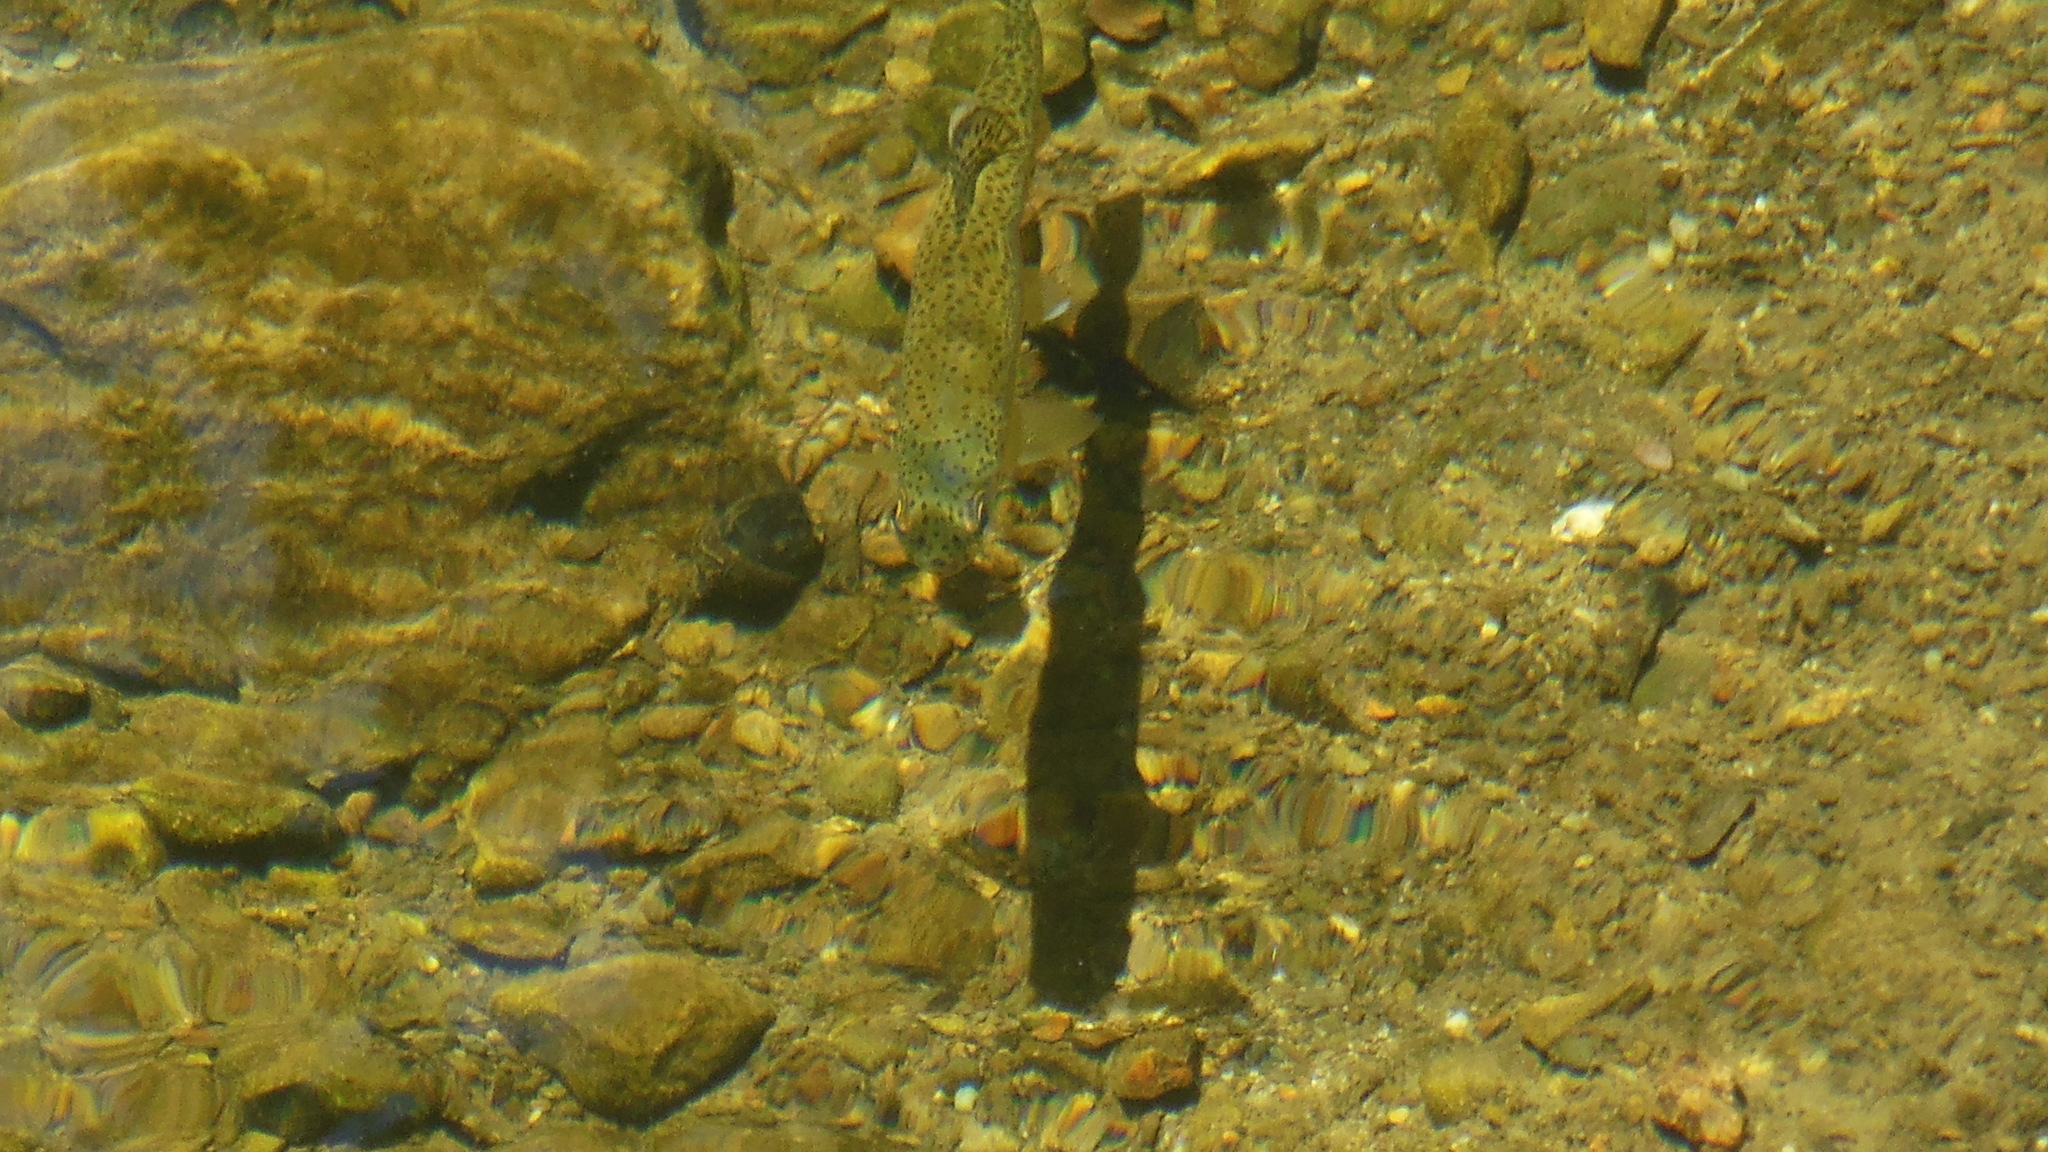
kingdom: Animalia
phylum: Chordata
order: Salmoniformes
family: Salmonidae
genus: Oncorhynchus
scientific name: Oncorhynchus mykiss
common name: Rainbow trout
